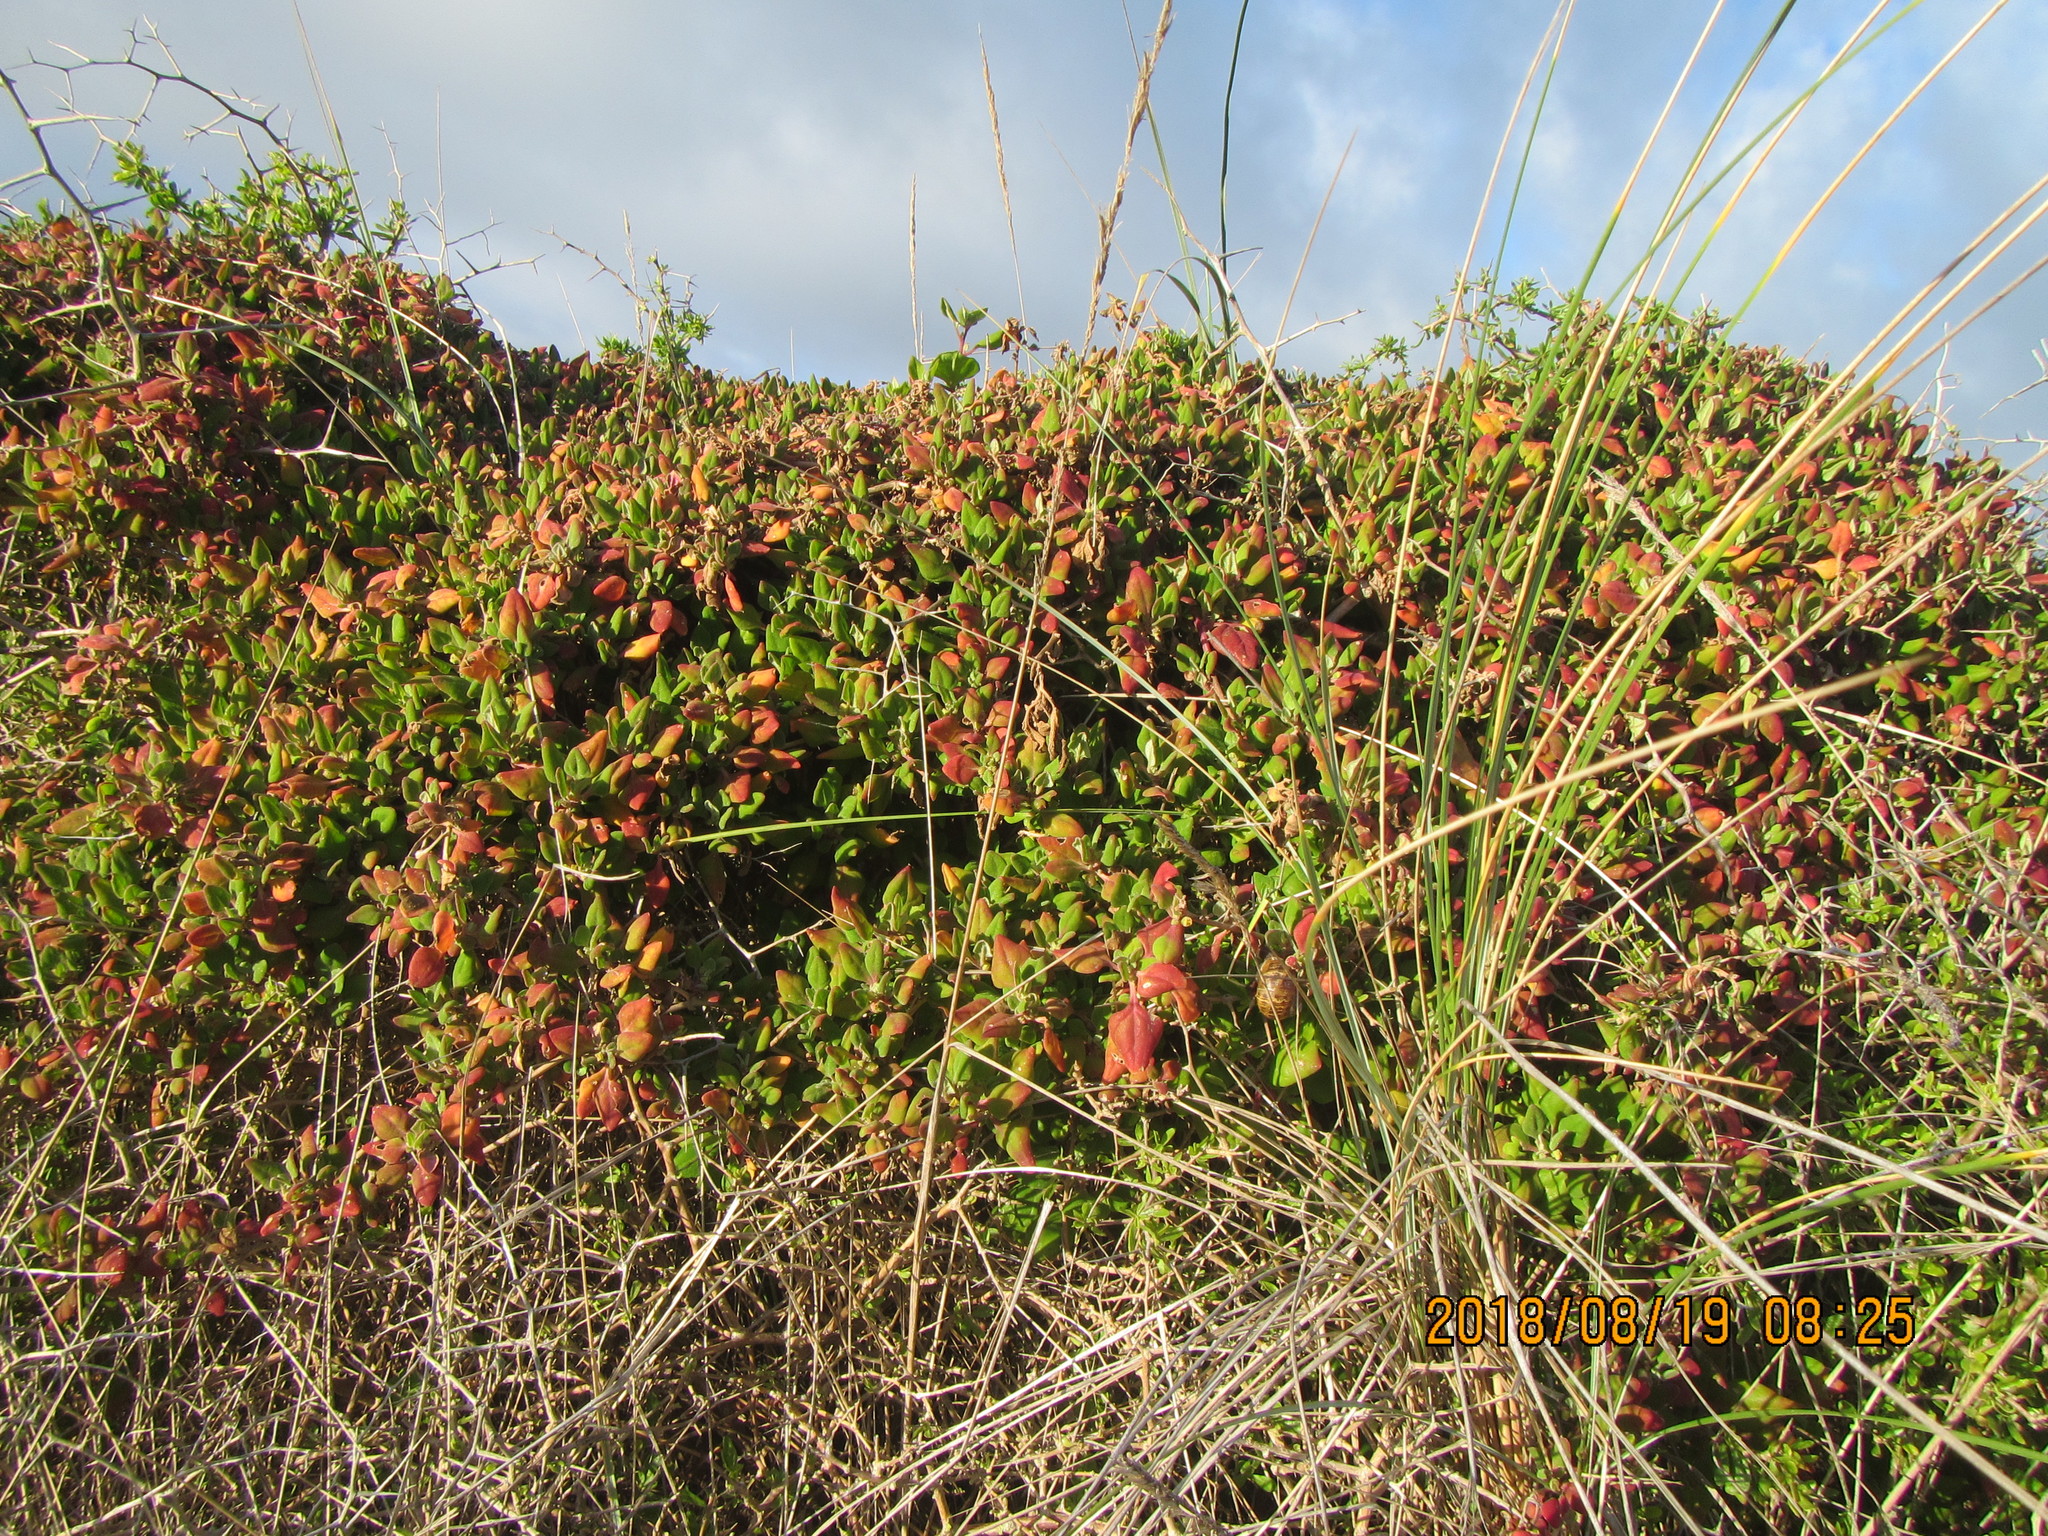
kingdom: Plantae
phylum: Tracheophyta
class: Magnoliopsida
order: Solanales
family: Solanaceae
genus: Lycium
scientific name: Lycium ferocissimum
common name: African boxthorn
